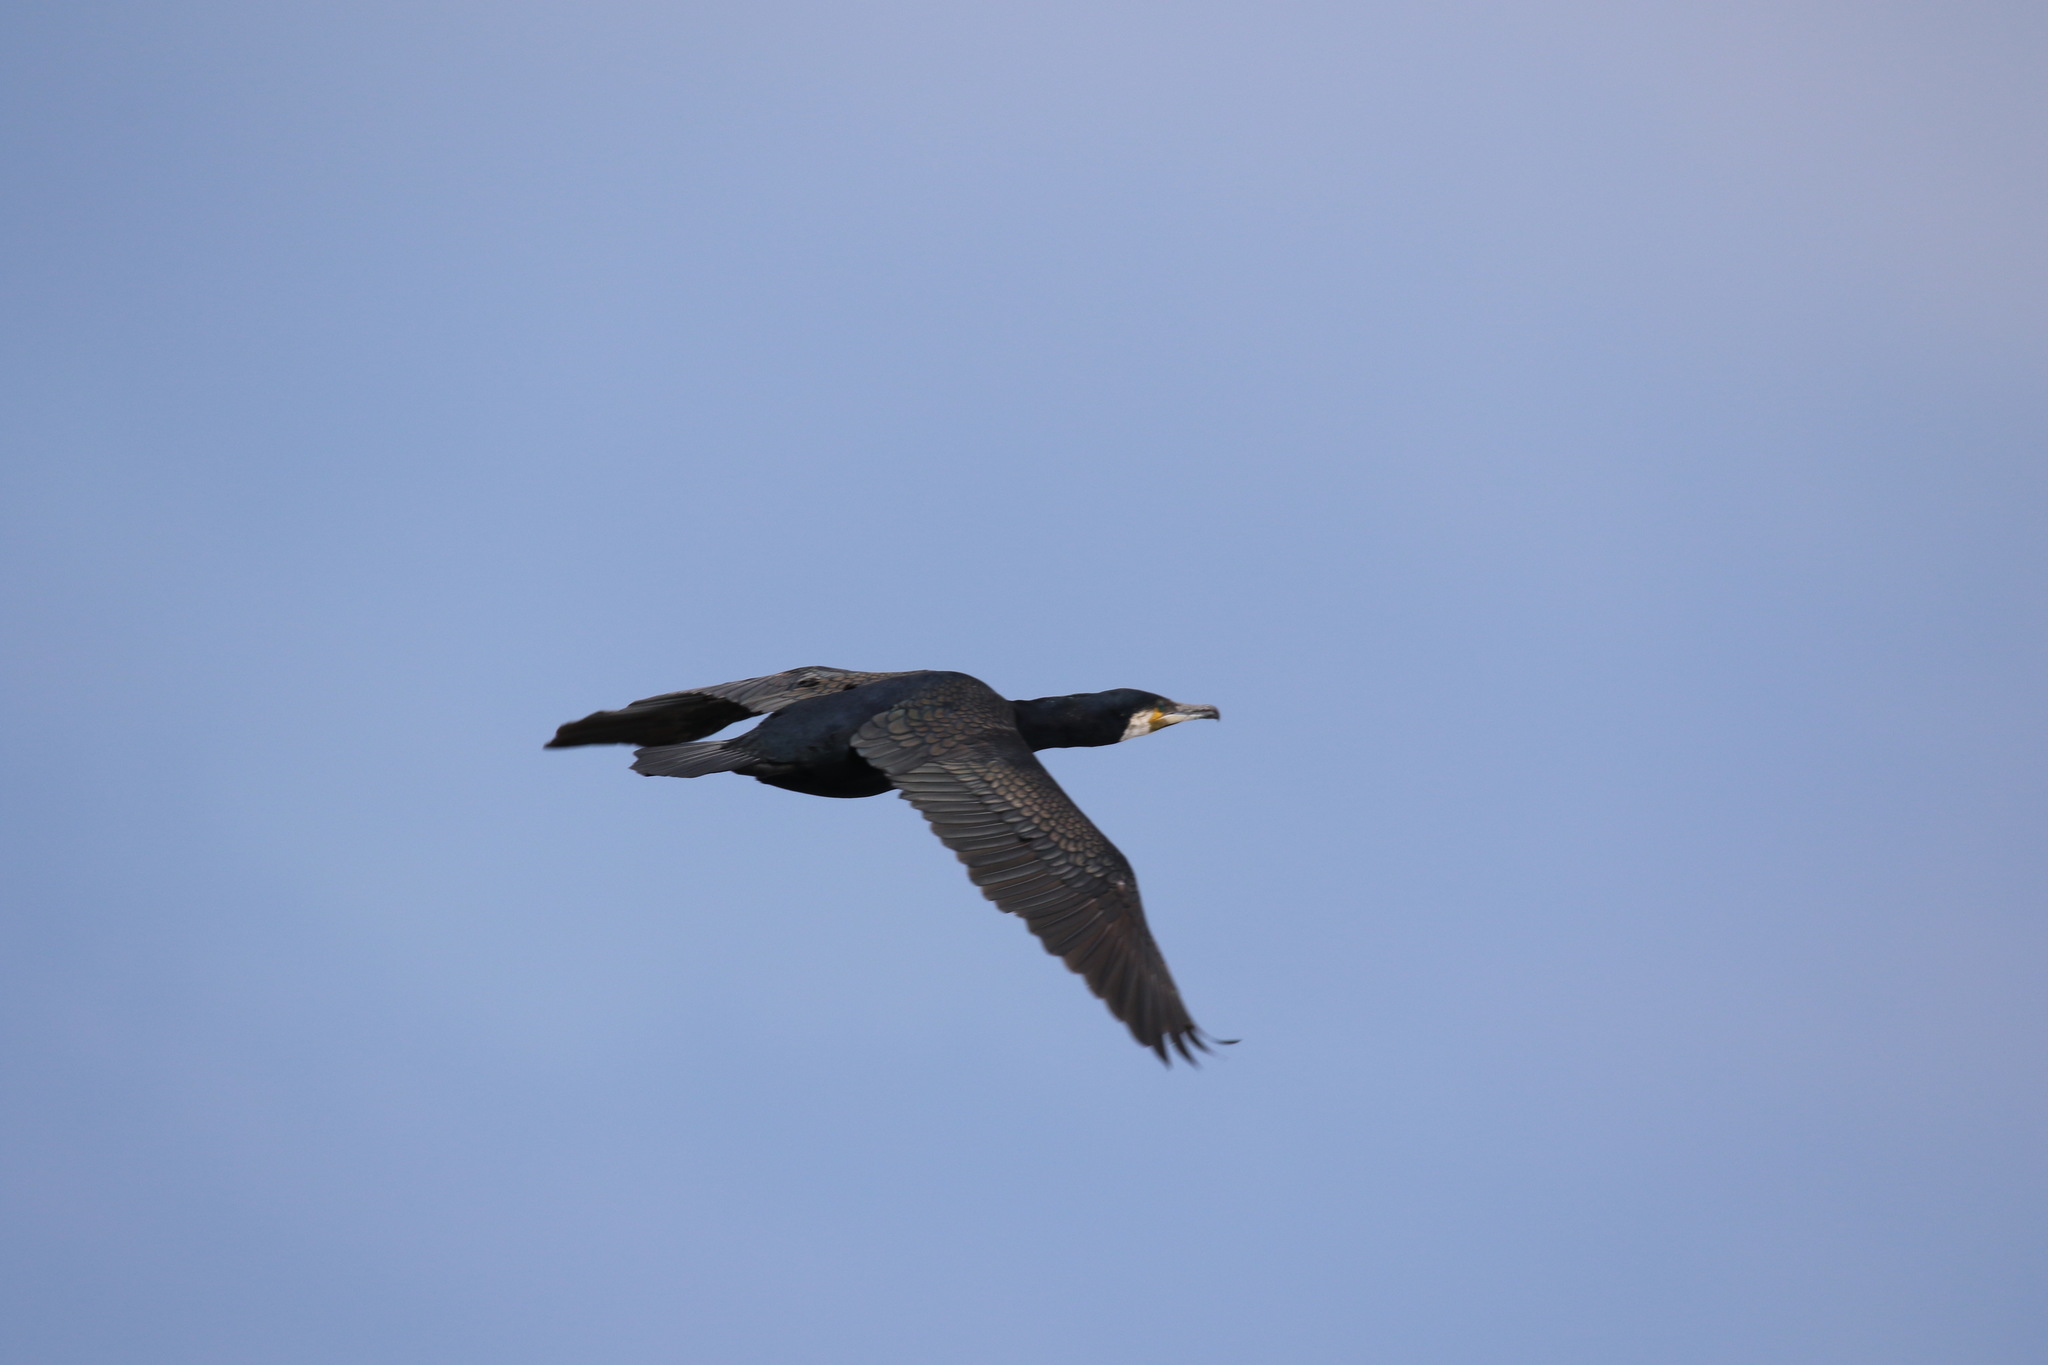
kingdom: Animalia
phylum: Chordata
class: Aves
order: Suliformes
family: Phalacrocoracidae
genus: Phalacrocorax
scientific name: Phalacrocorax carbo
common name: Great cormorant
